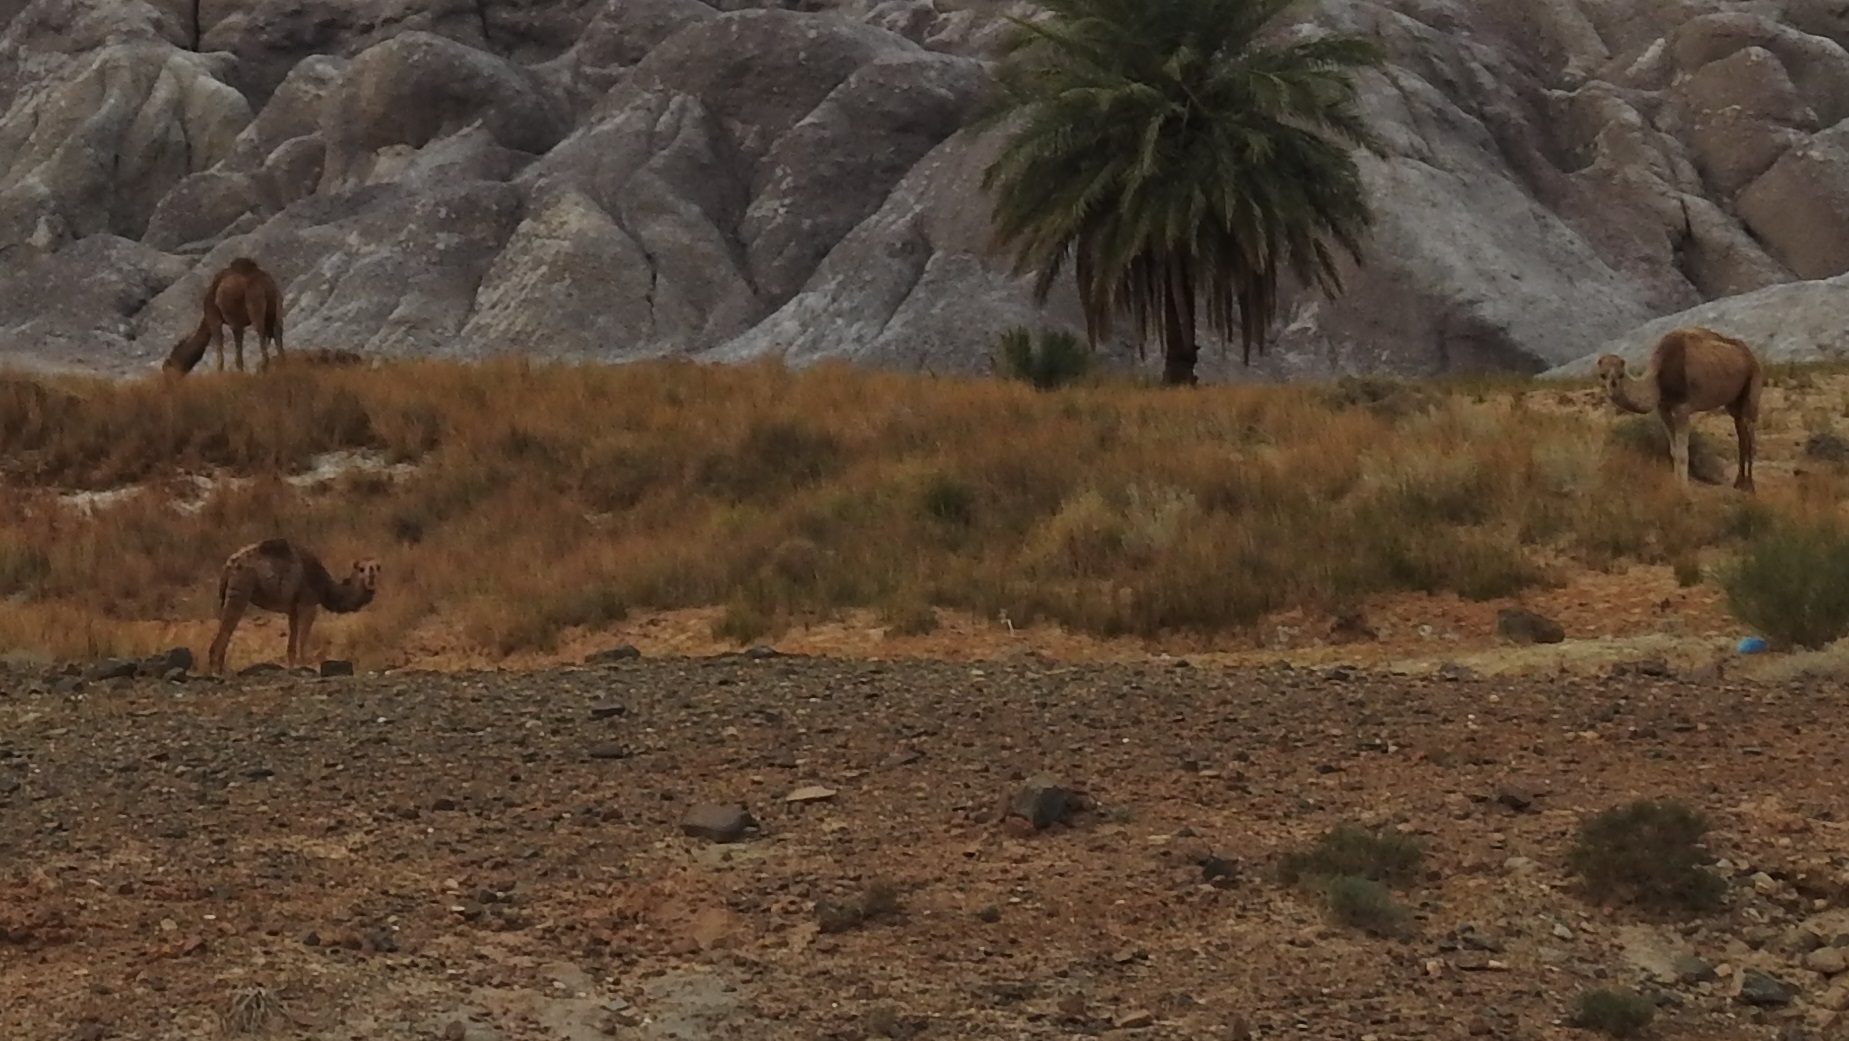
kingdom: Animalia
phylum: Chordata
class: Mammalia
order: Artiodactyla
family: Camelidae
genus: Camelus
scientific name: Camelus dromedarius
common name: One-humped camel
